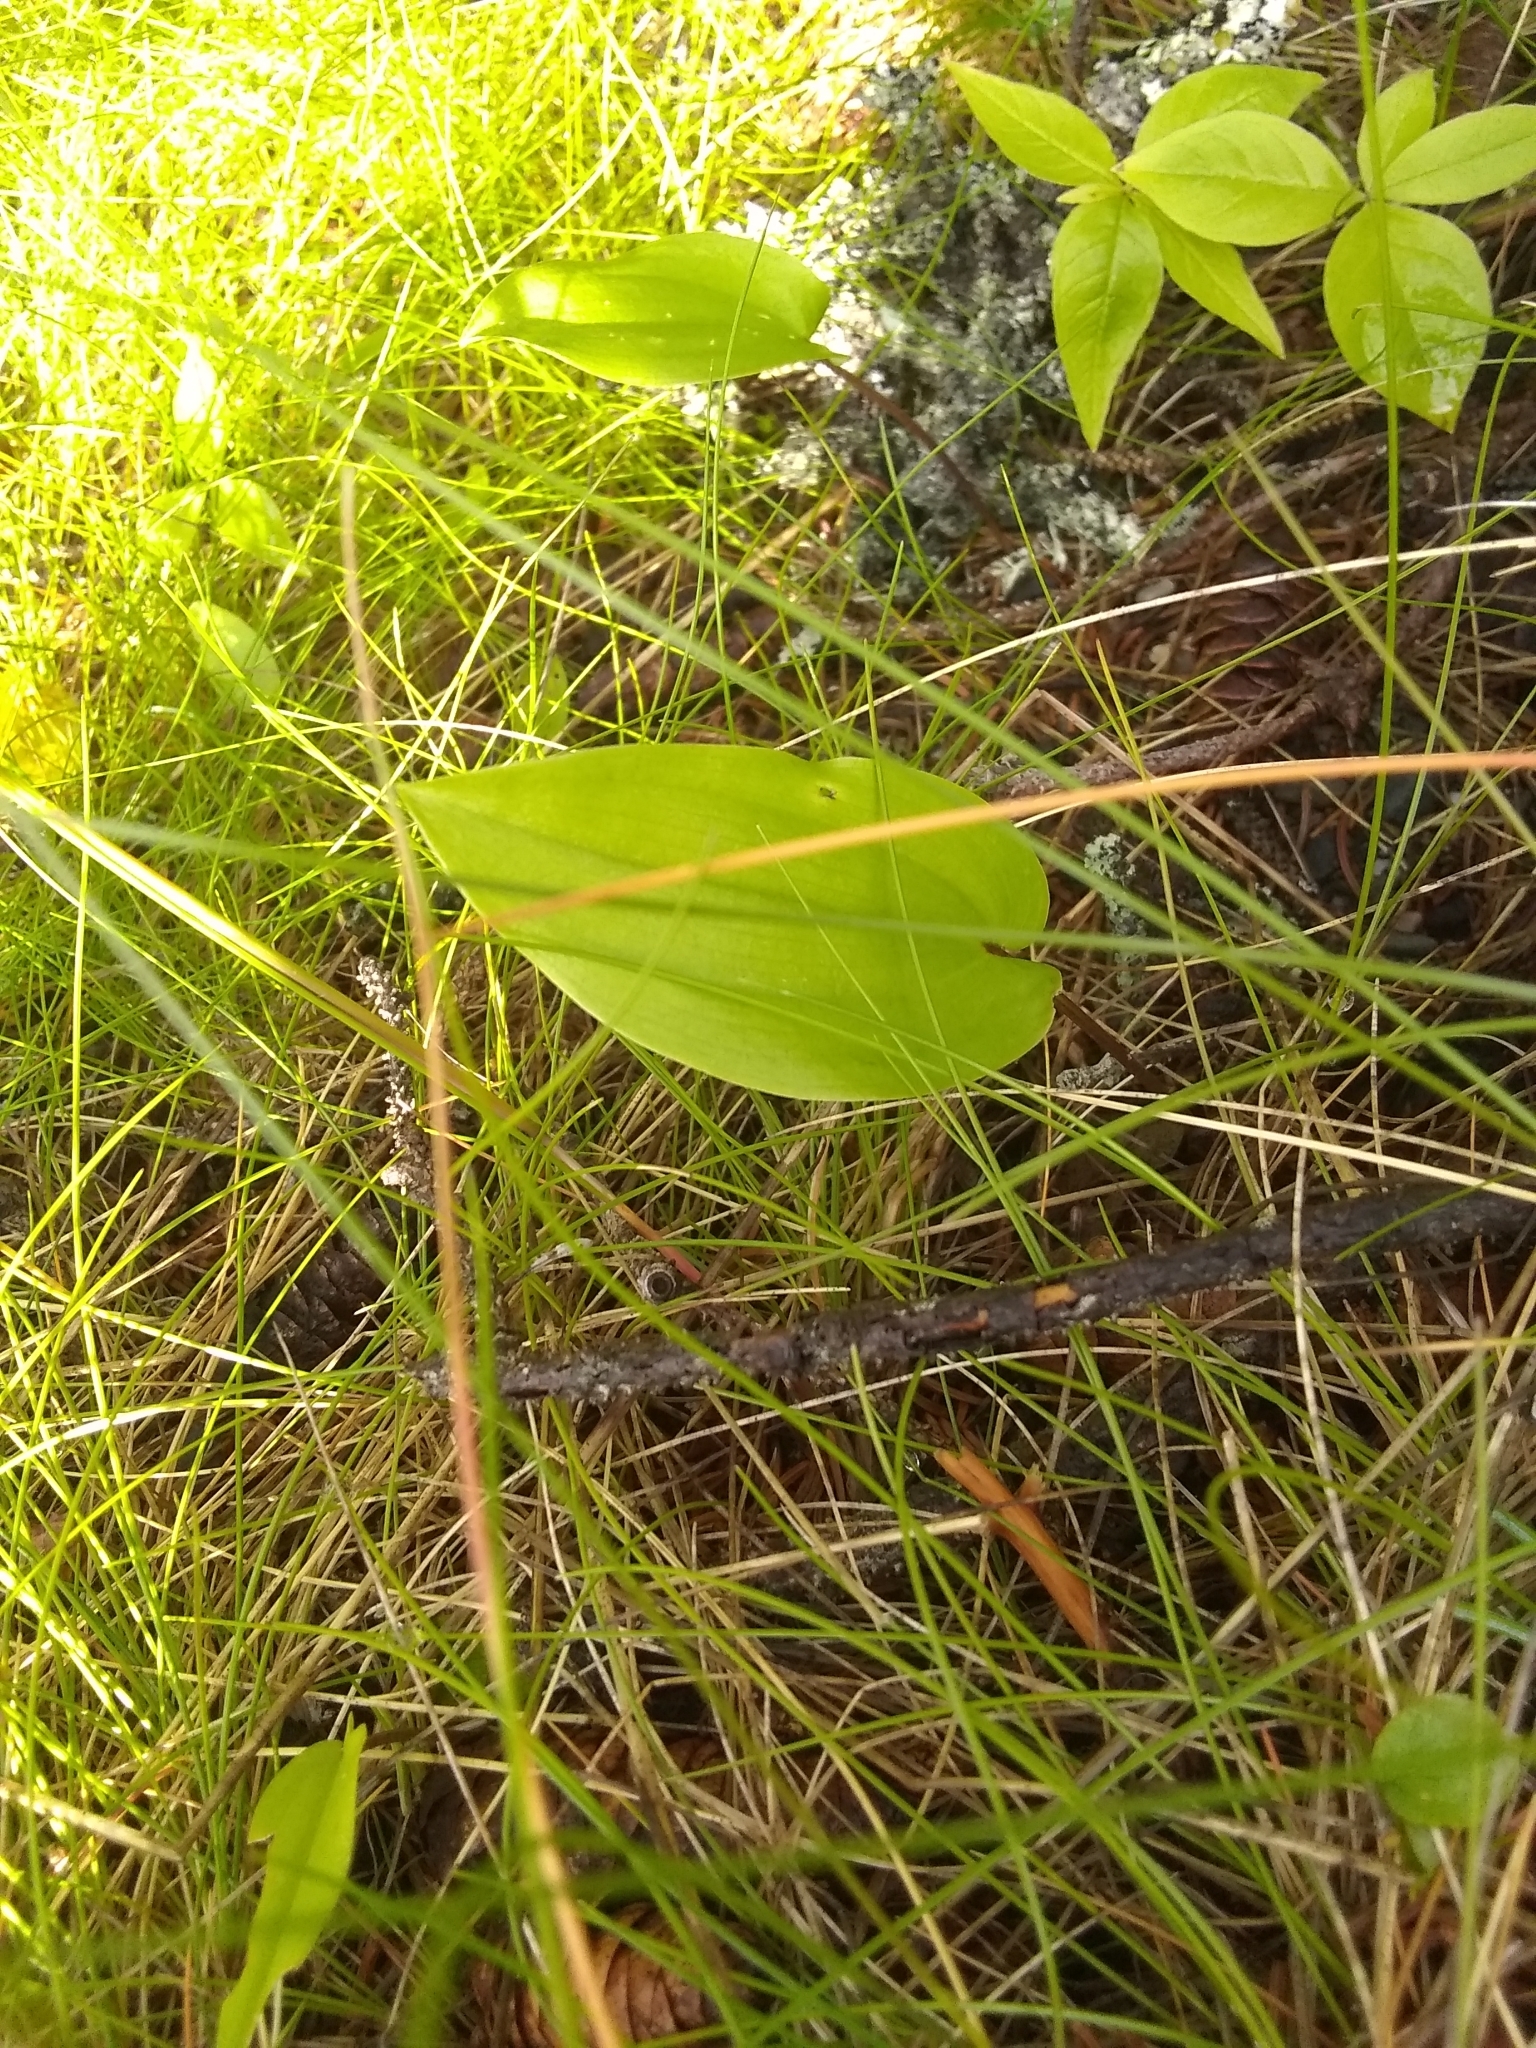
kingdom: Plantae
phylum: Tracheophyta
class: Liliopsida
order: Asparagales
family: Asparagaceae
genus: Maianthemum
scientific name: Maianthemum canadense
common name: False lily-of-the-valley
